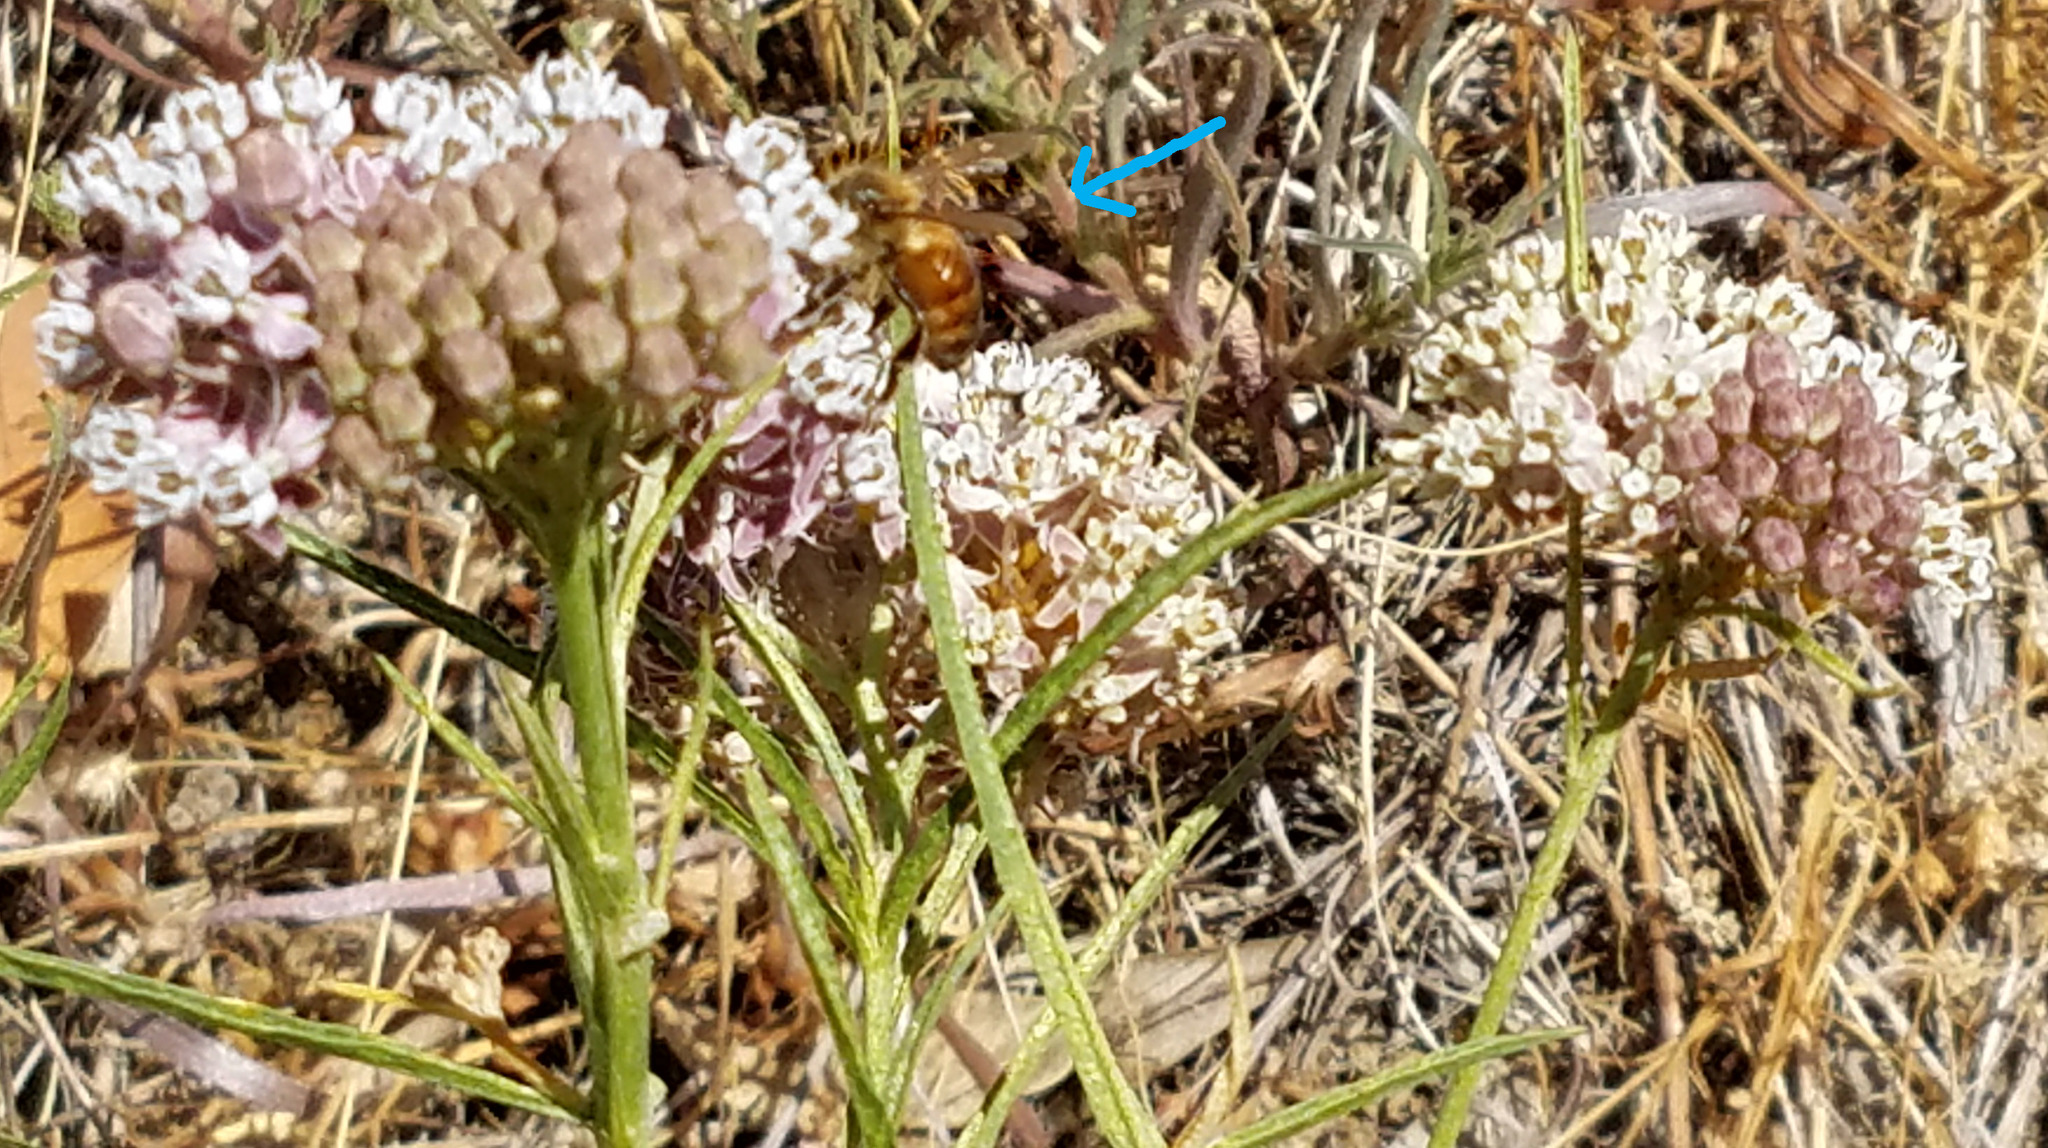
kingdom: Plantae
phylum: Tracheophyta
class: Magnoliopsida
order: Gentianales
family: Apocynaceae
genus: Asclepias
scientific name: Asclepias fascicularis
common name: Mexican milkweed
